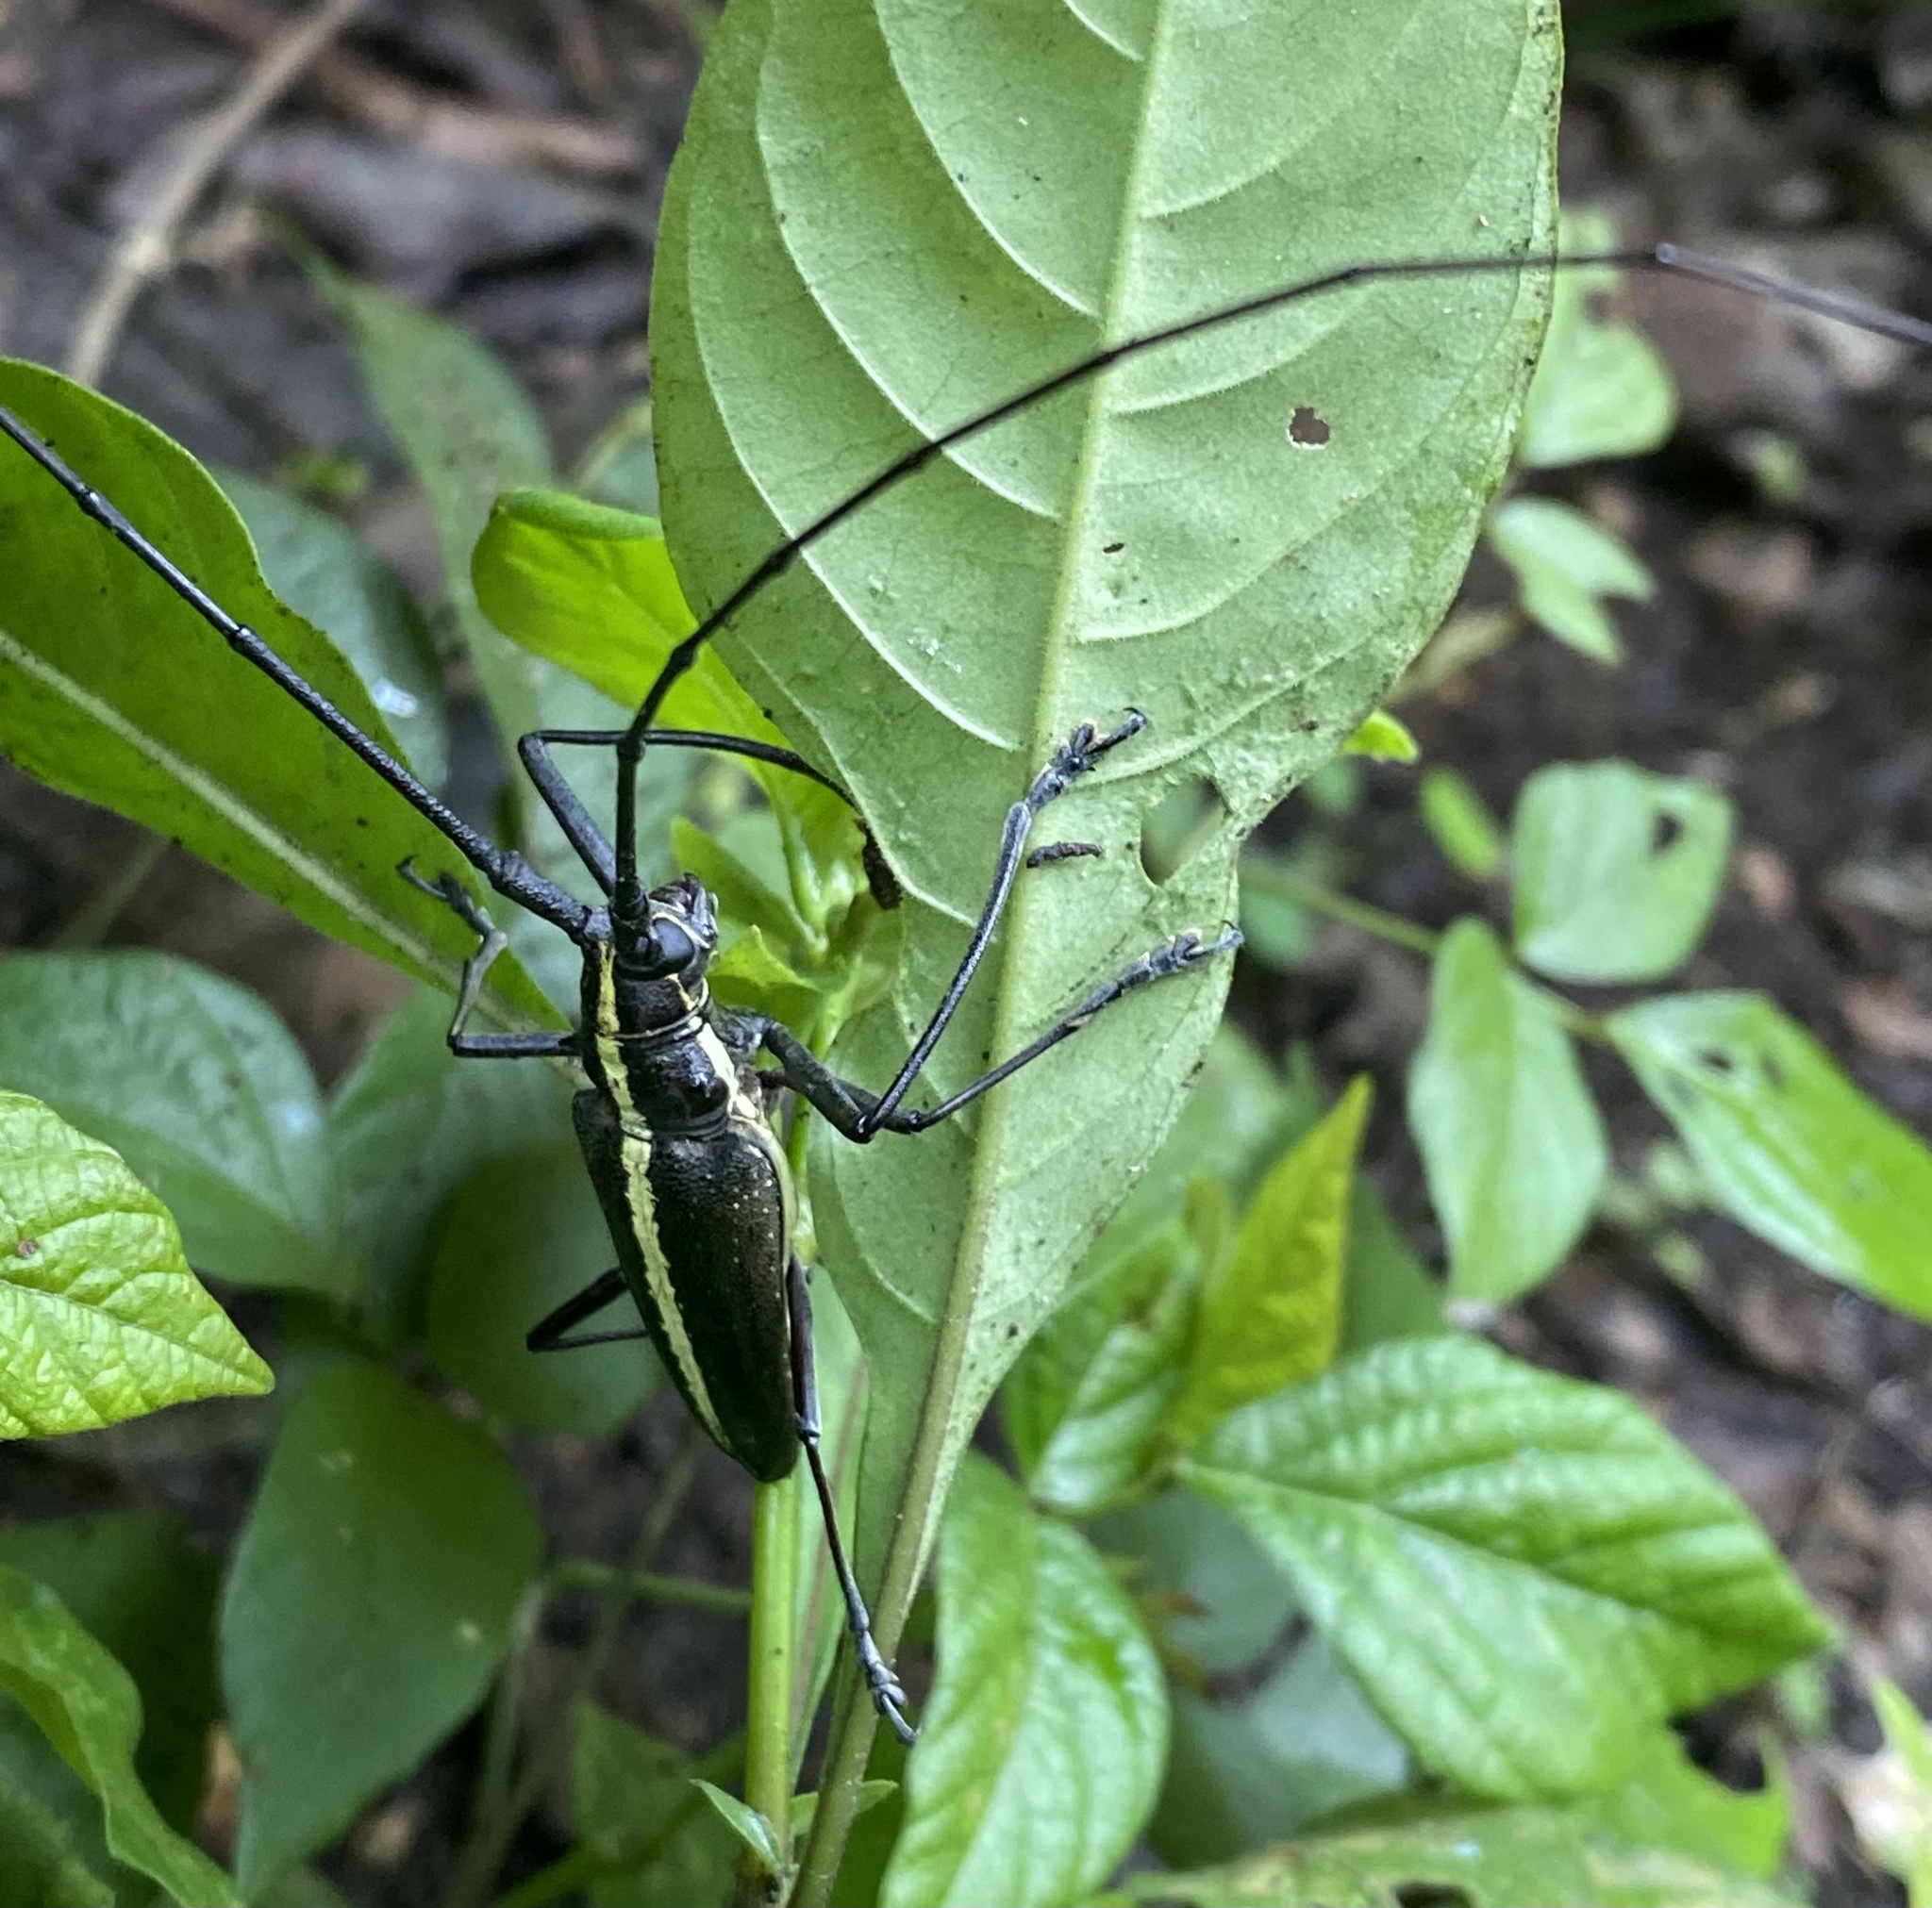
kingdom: Animalia
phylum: Arthropoda
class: Insecta
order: Coleoptera
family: Cerambycidae
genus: Taeniotes
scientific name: Taeniotes scalatus
